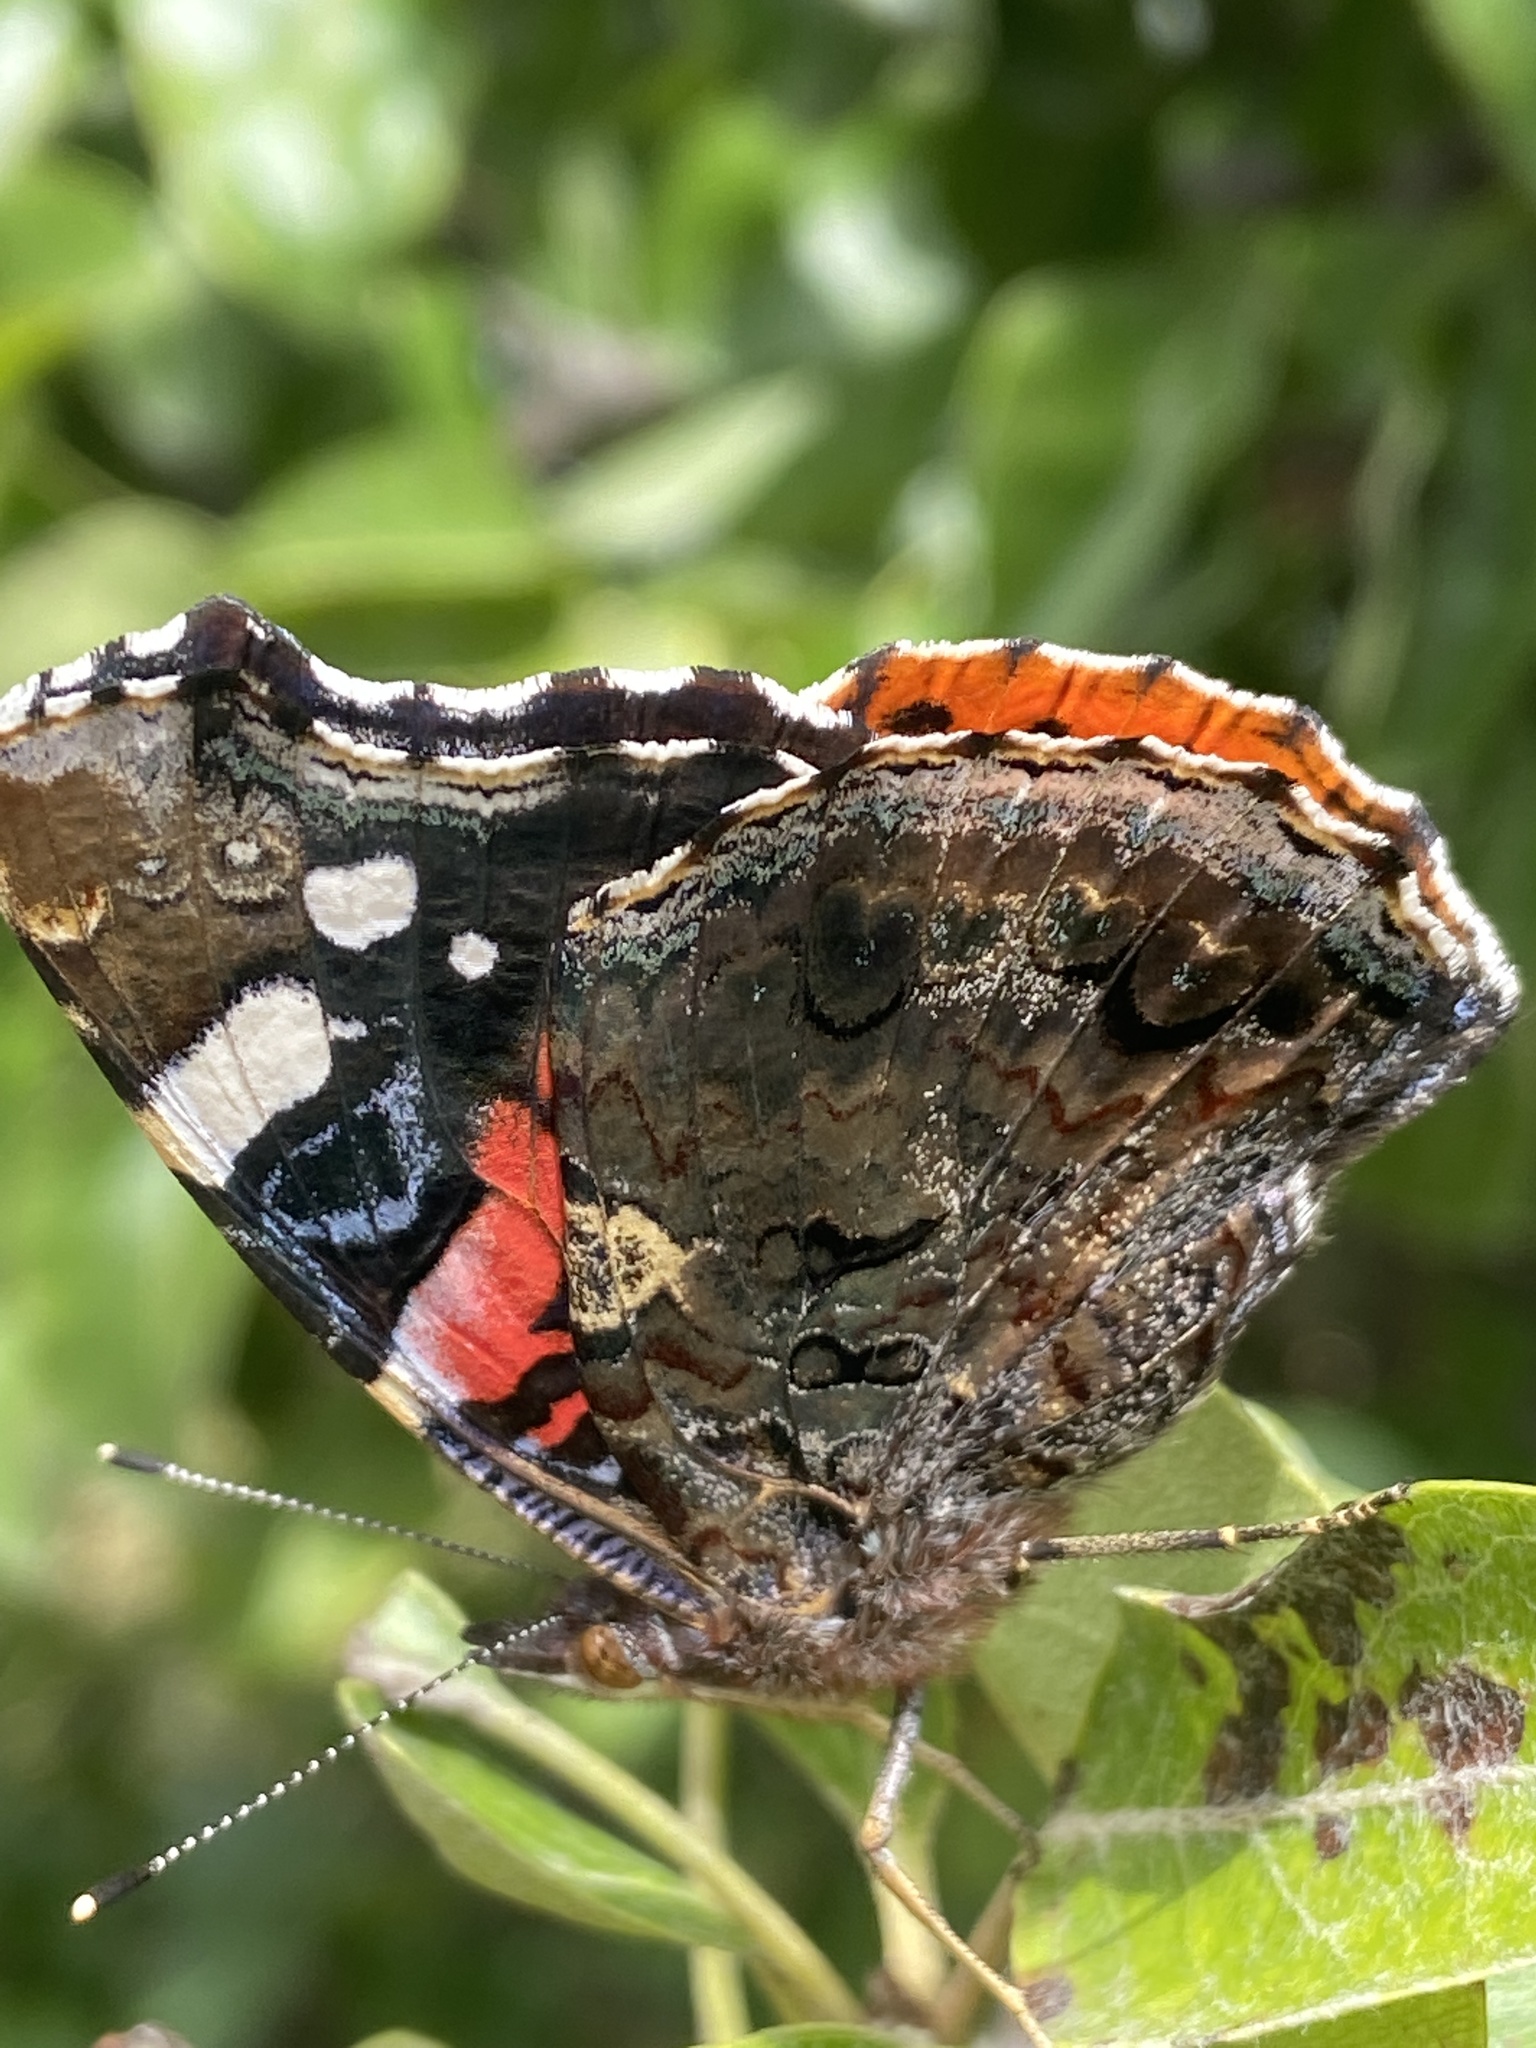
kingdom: Animalia
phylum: Arthropoda
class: Insecta
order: Lepidoptera
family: Nymphalidae
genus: Vanessa
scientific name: Vanessa atalanta
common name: Red admiral
